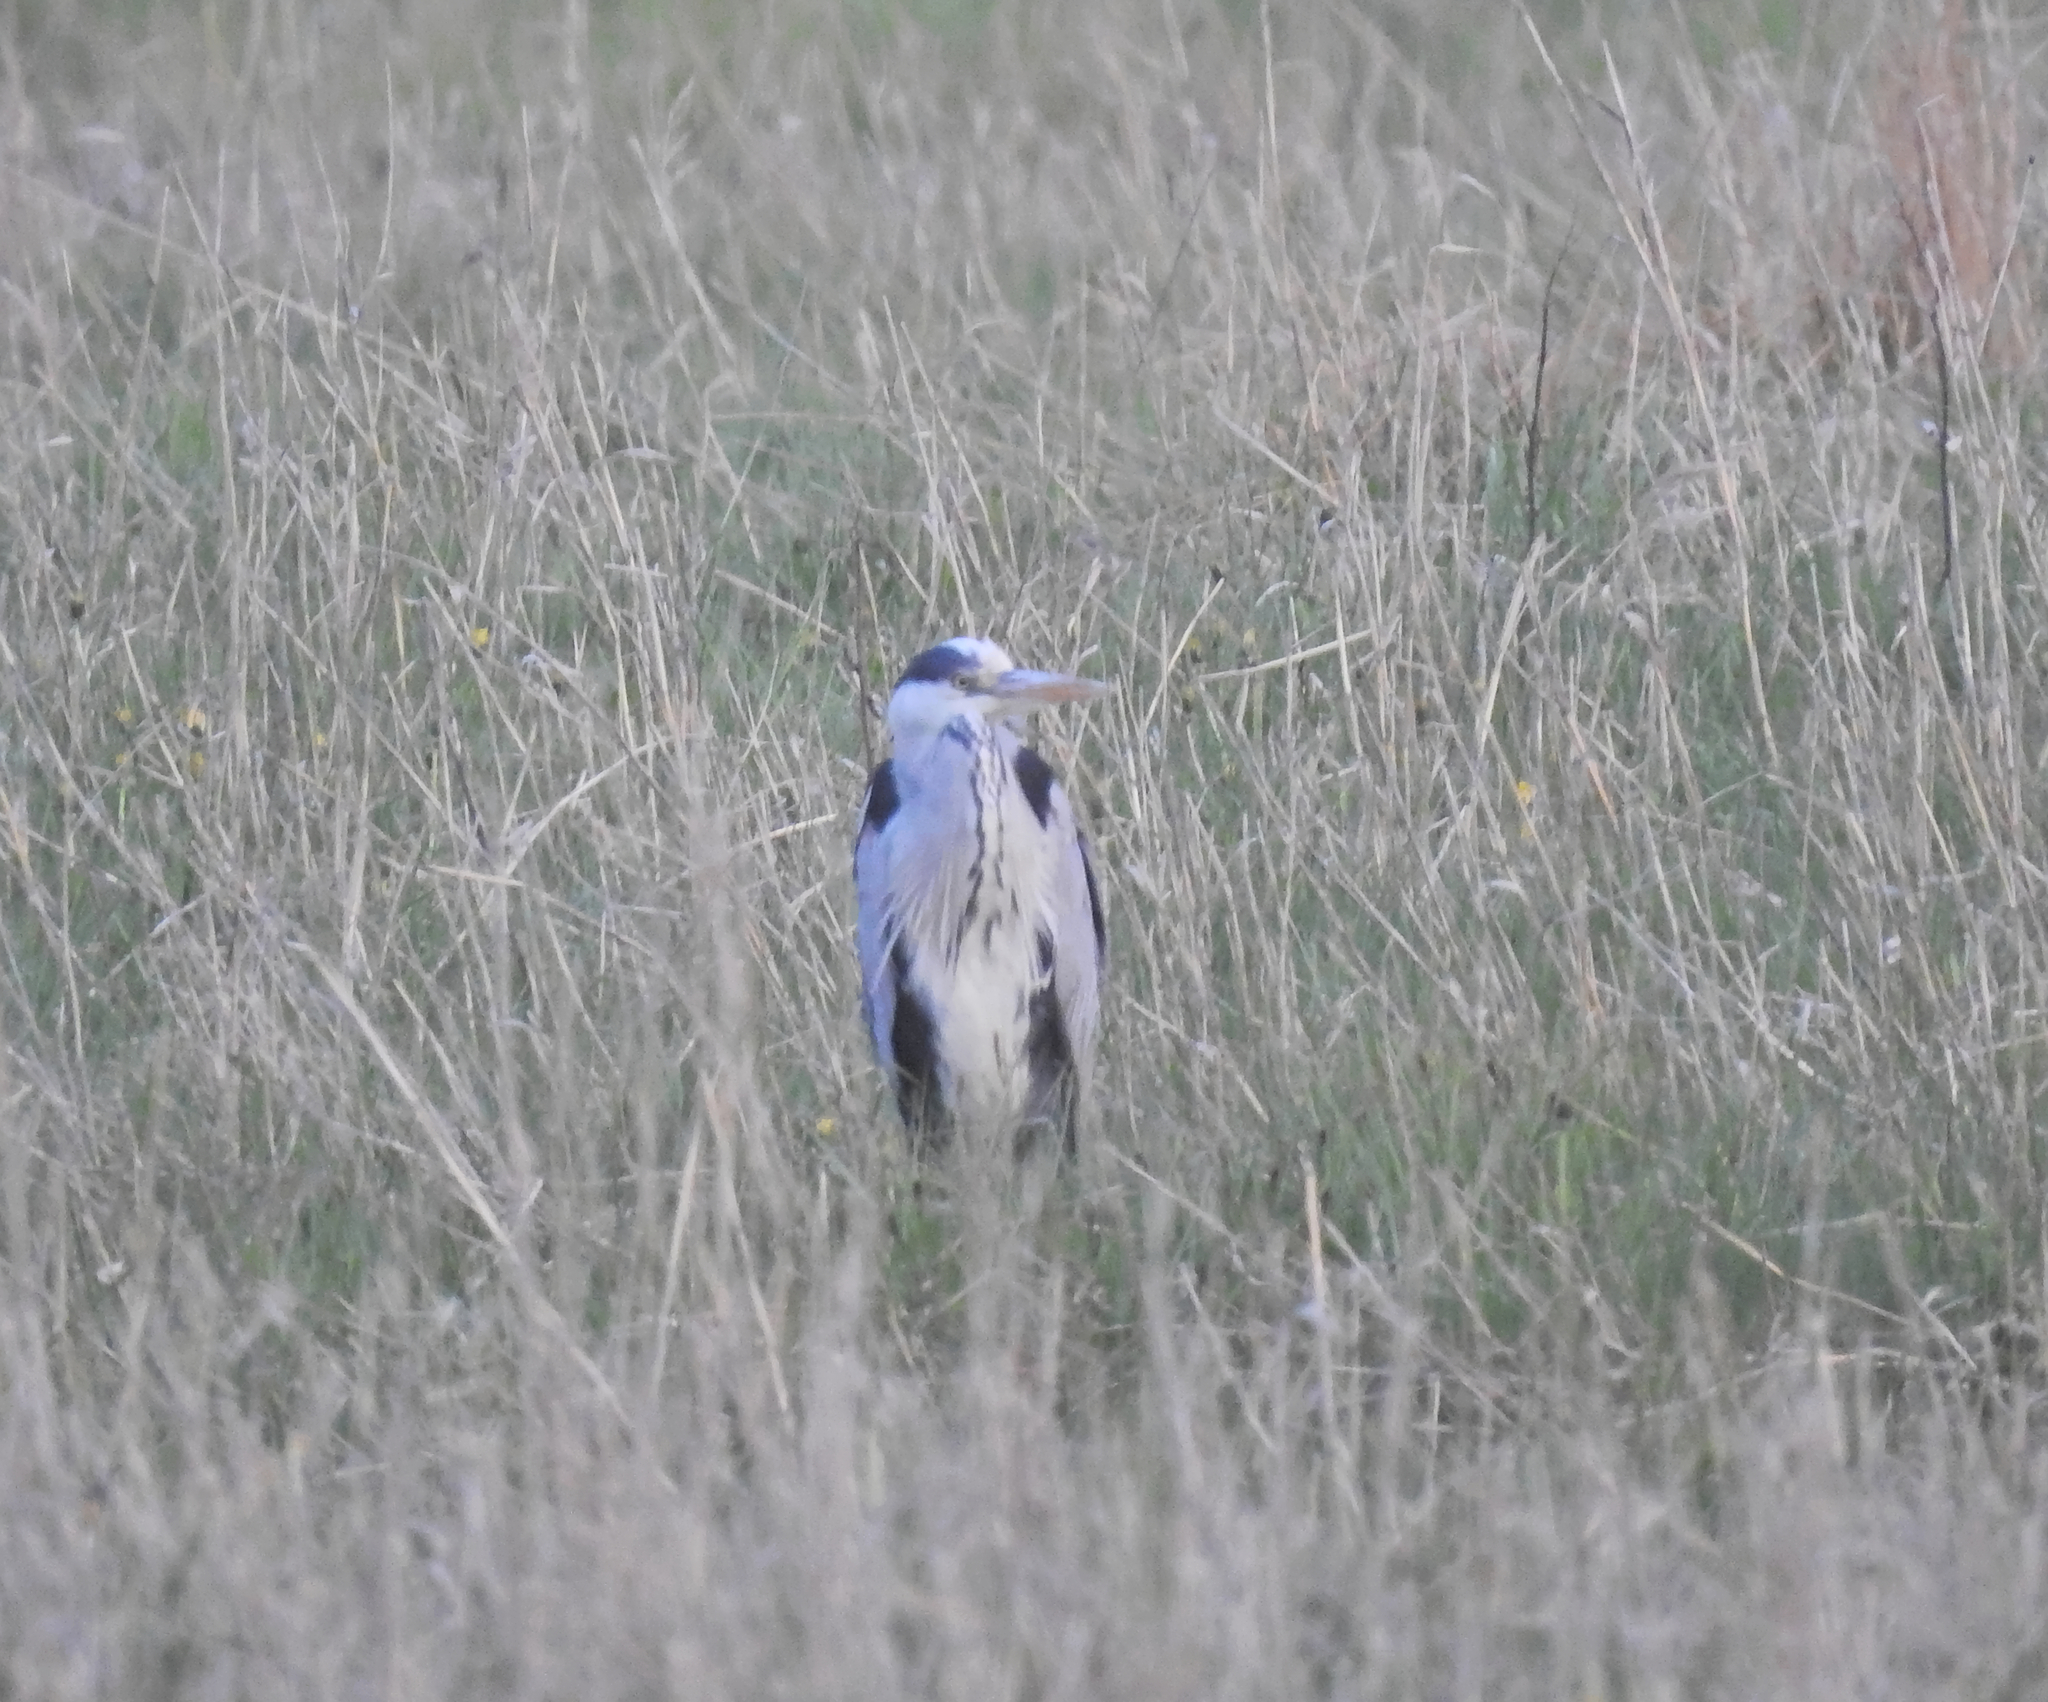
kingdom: Animalia
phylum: Chordata
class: Aves
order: Pelecaniformes
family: Ardeidae
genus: Ardea
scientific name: Ardea cinerea
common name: Grey heron
